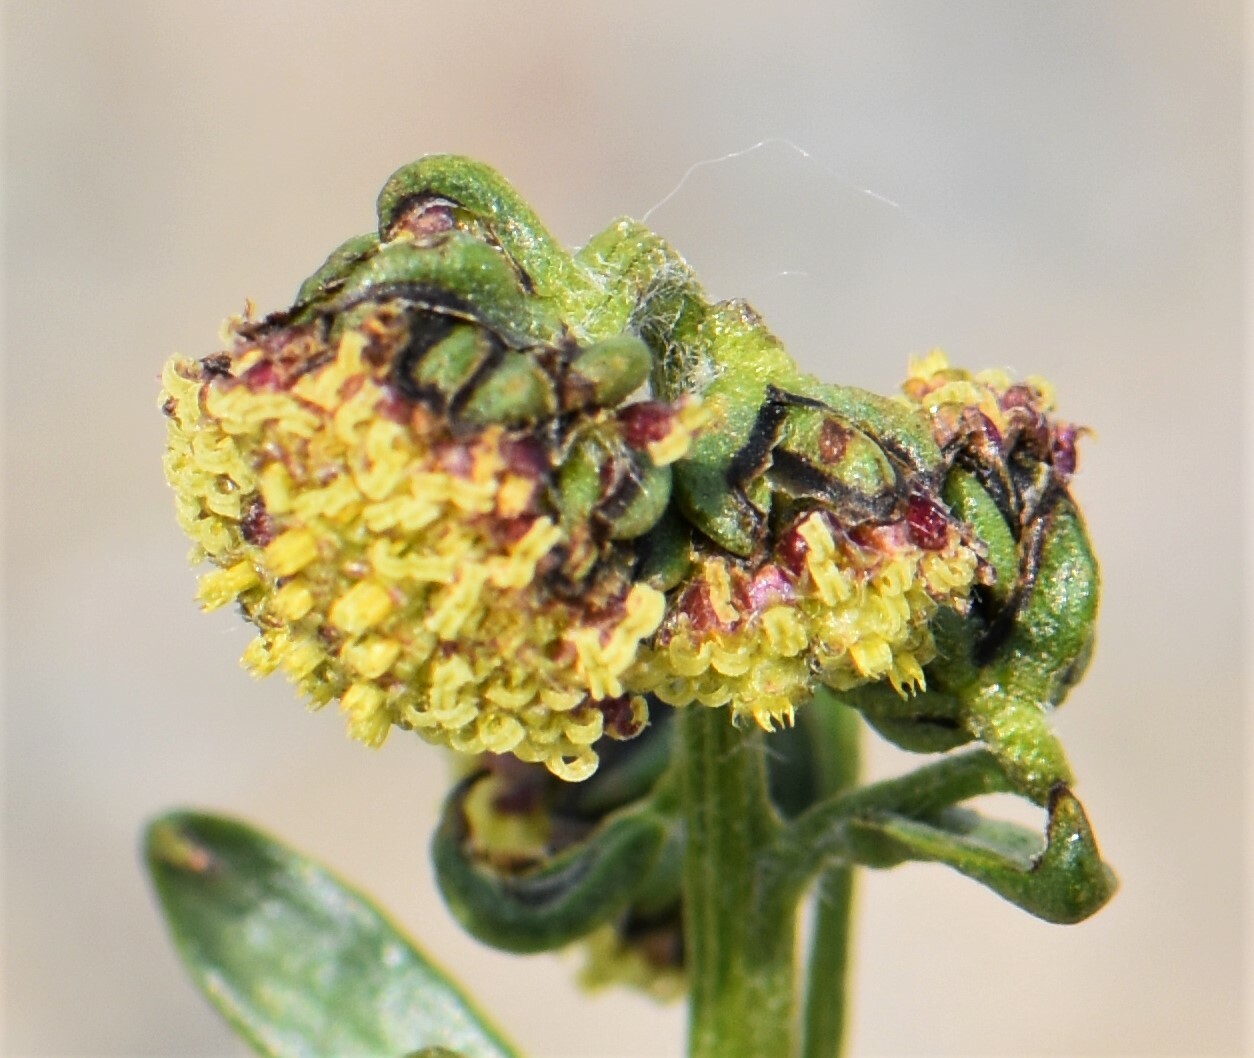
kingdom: Plantae
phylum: Tracheophyta
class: Magnoliopsida
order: Asterales
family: Asteraceae
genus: Artemisia
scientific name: Artemisia norvegica
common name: Norwegian mugwort
